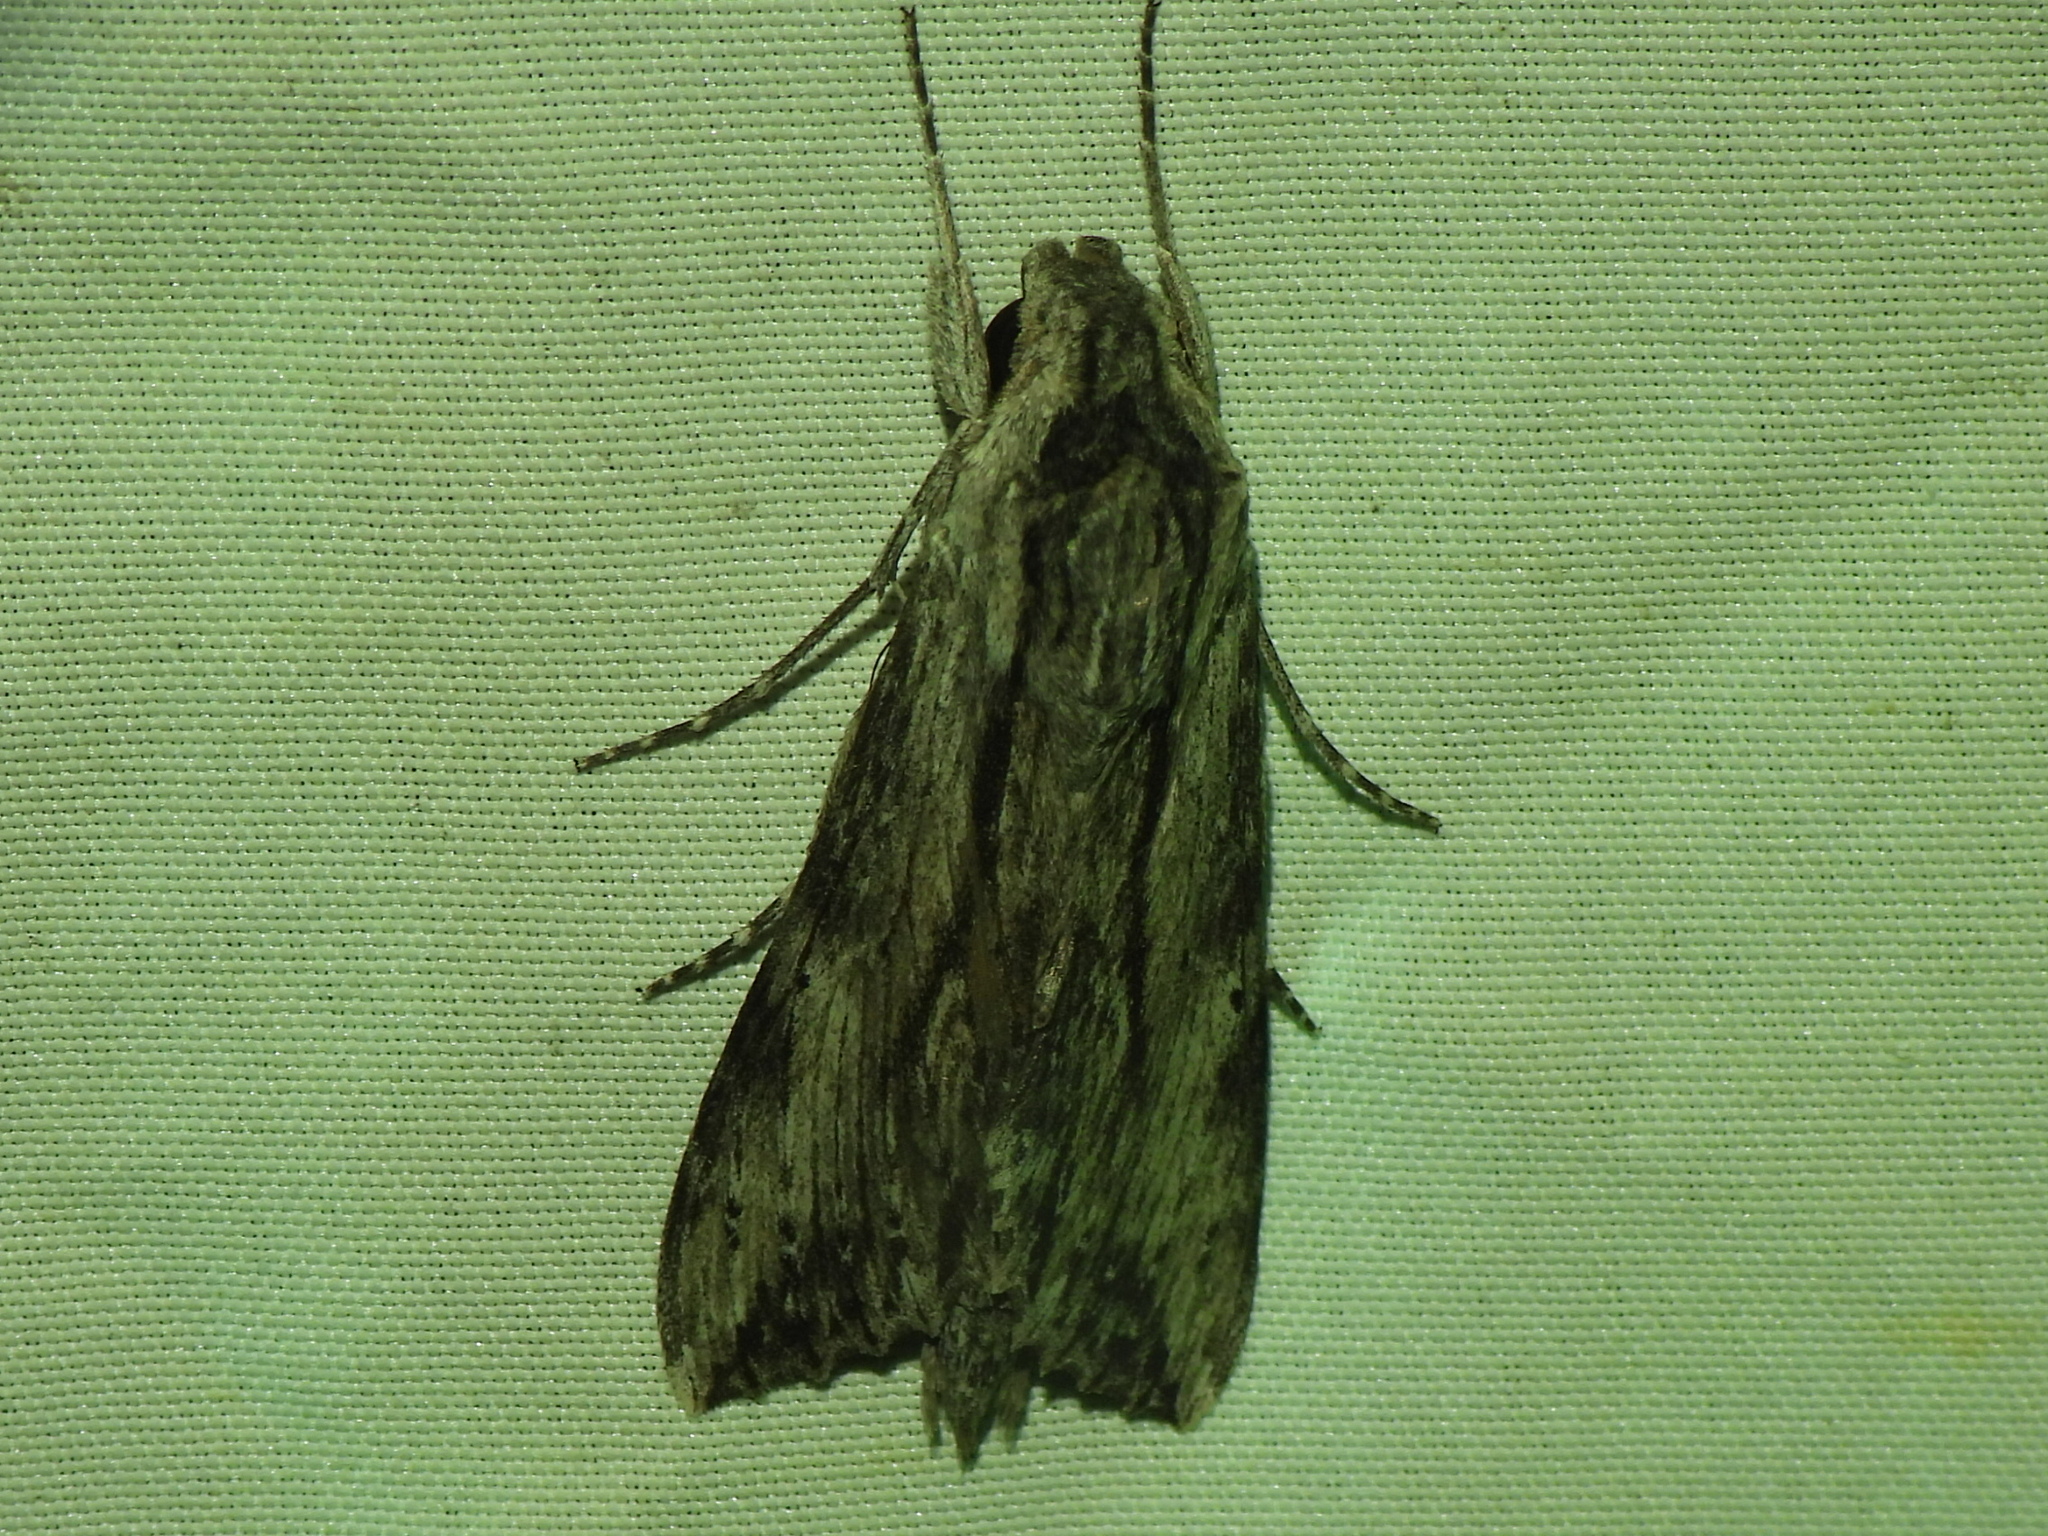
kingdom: Animalia
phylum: Arthropoda
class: Insecta
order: Lepidoptera
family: Sphingidae
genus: Erinnyis
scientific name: Erinnyis obscura
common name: Obscure sphinx
